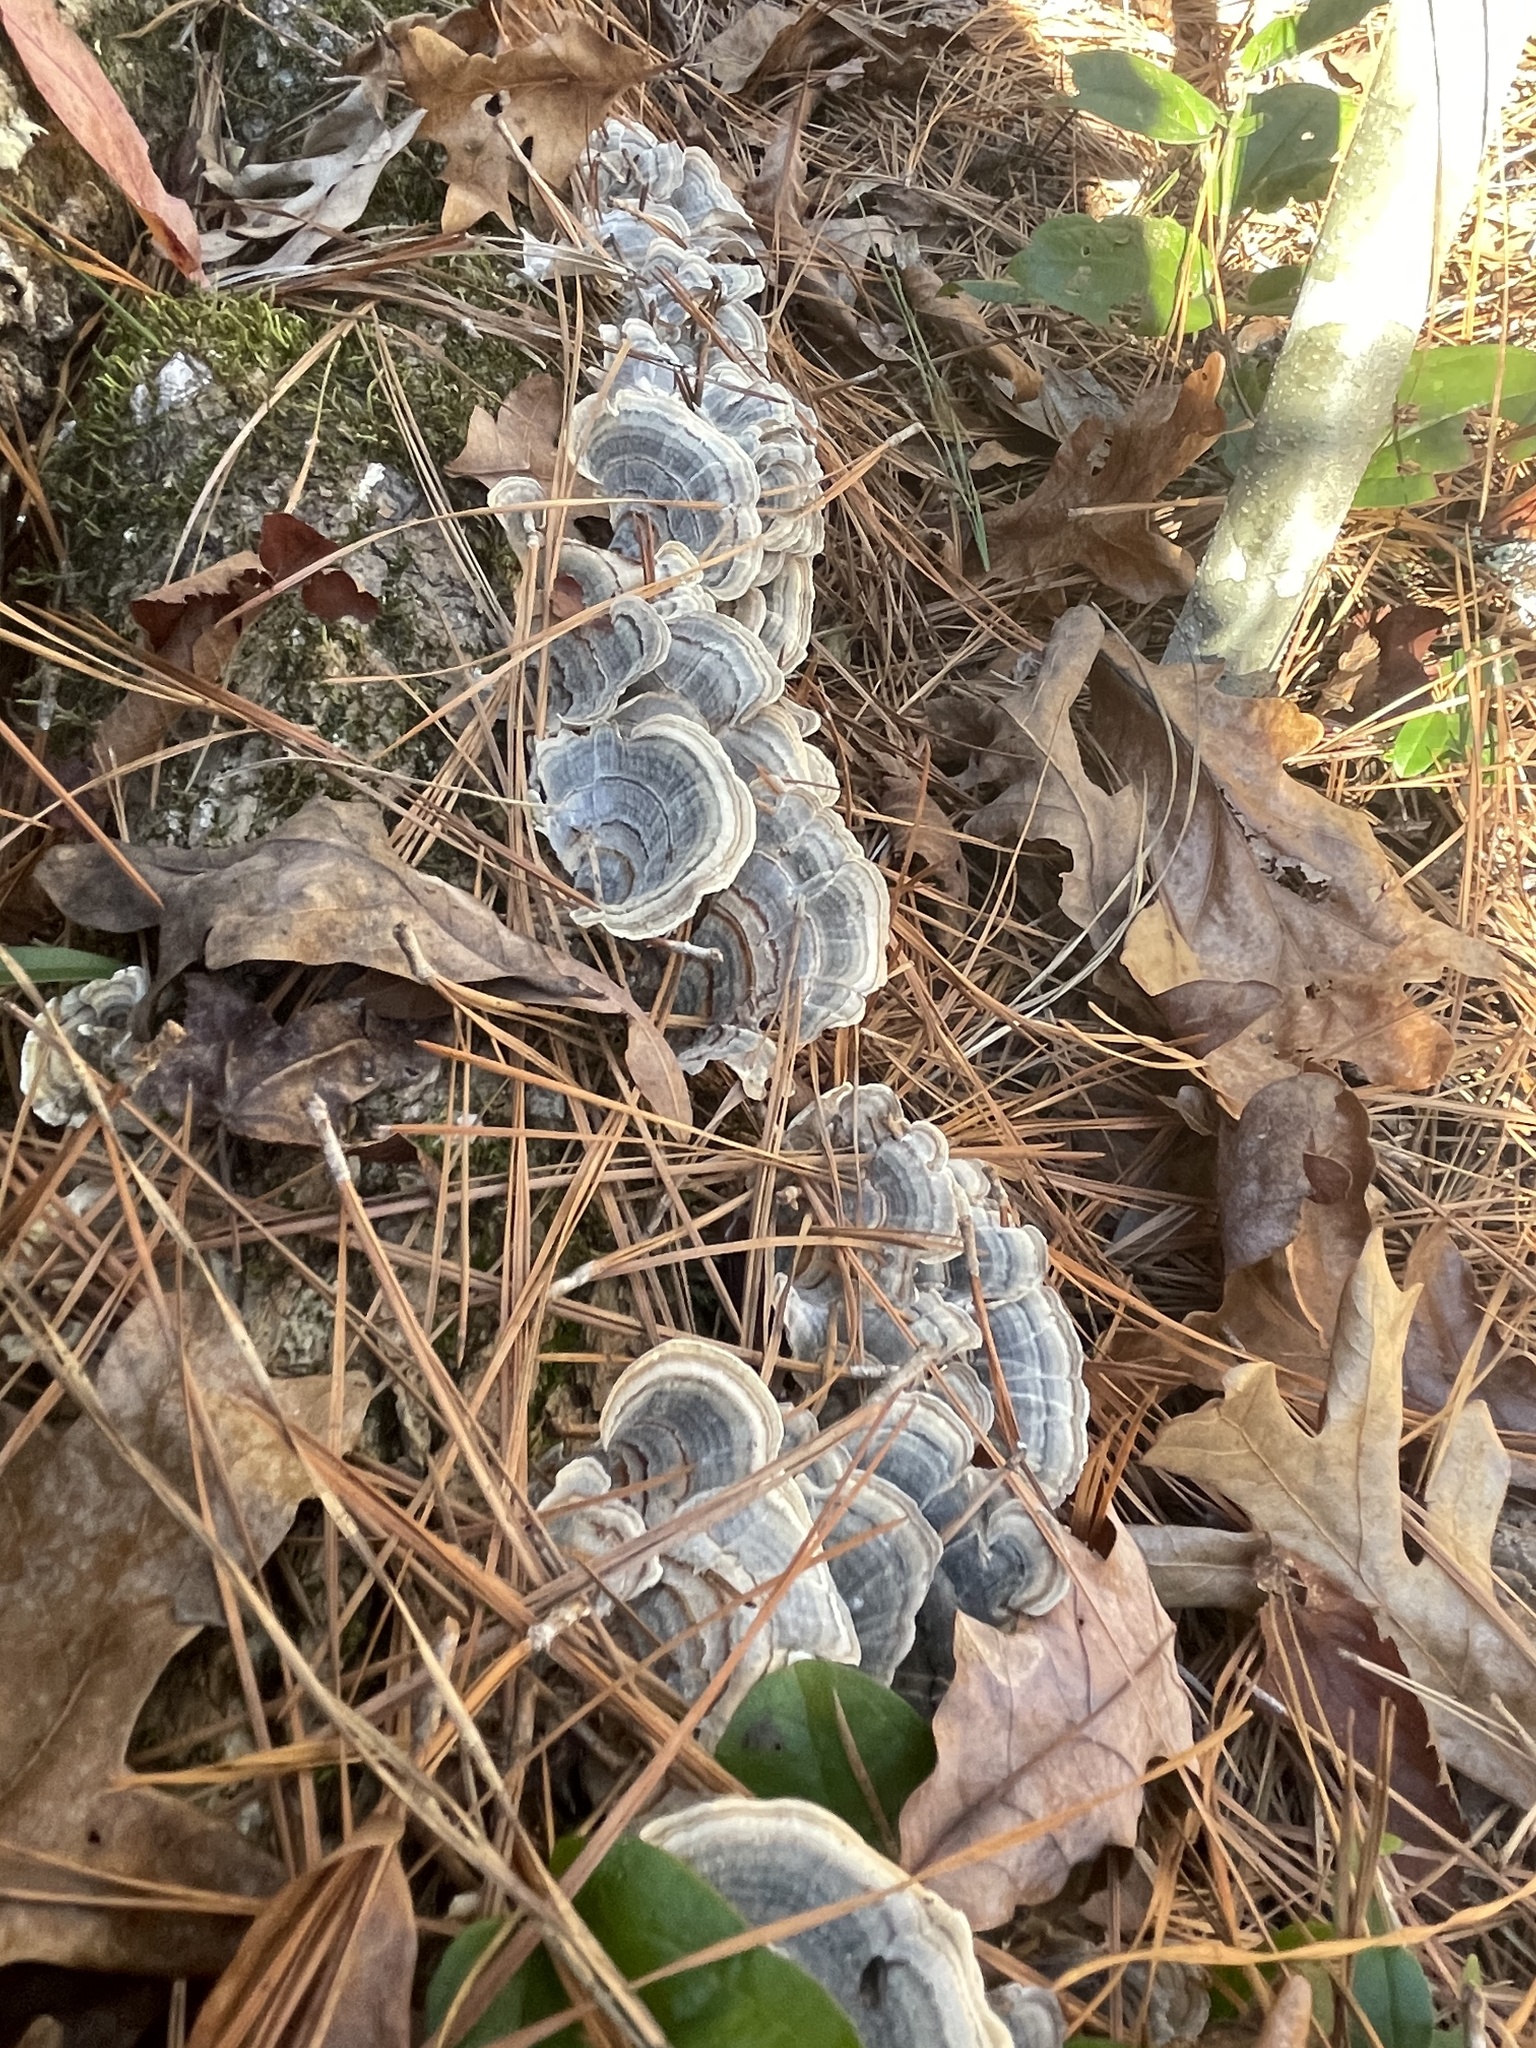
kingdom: Fungi
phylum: Basidiomycota
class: Agaricomycetes
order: Polyporales
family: Polyporaceae
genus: Trametes
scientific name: Trametes versicolor
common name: Turkeytail
